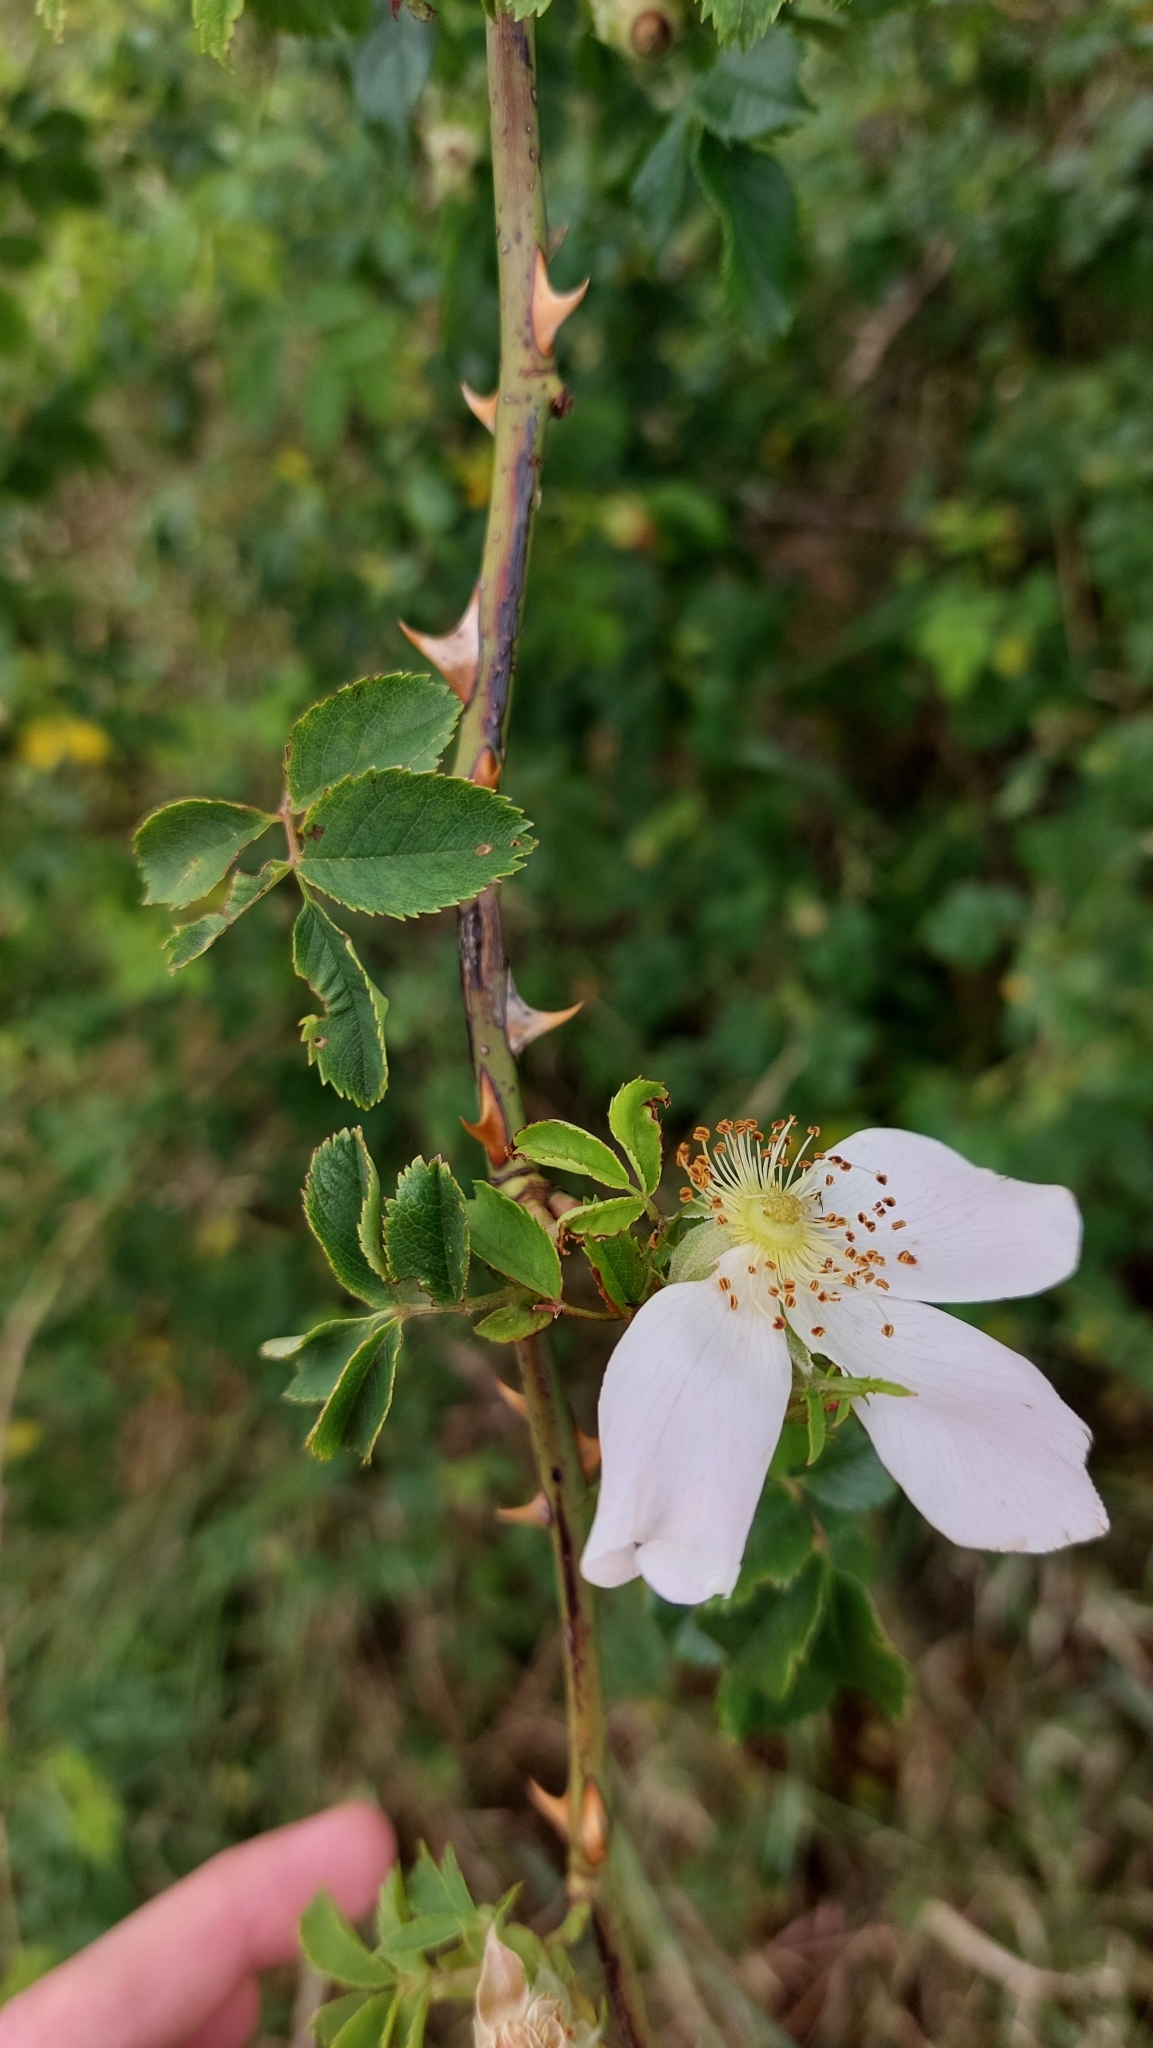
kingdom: Plantae
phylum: Tracheophyta
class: Magnoliopsida
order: Rosales
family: Rosaceae
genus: Rosa
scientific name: Rosa canina
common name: Dog rose
